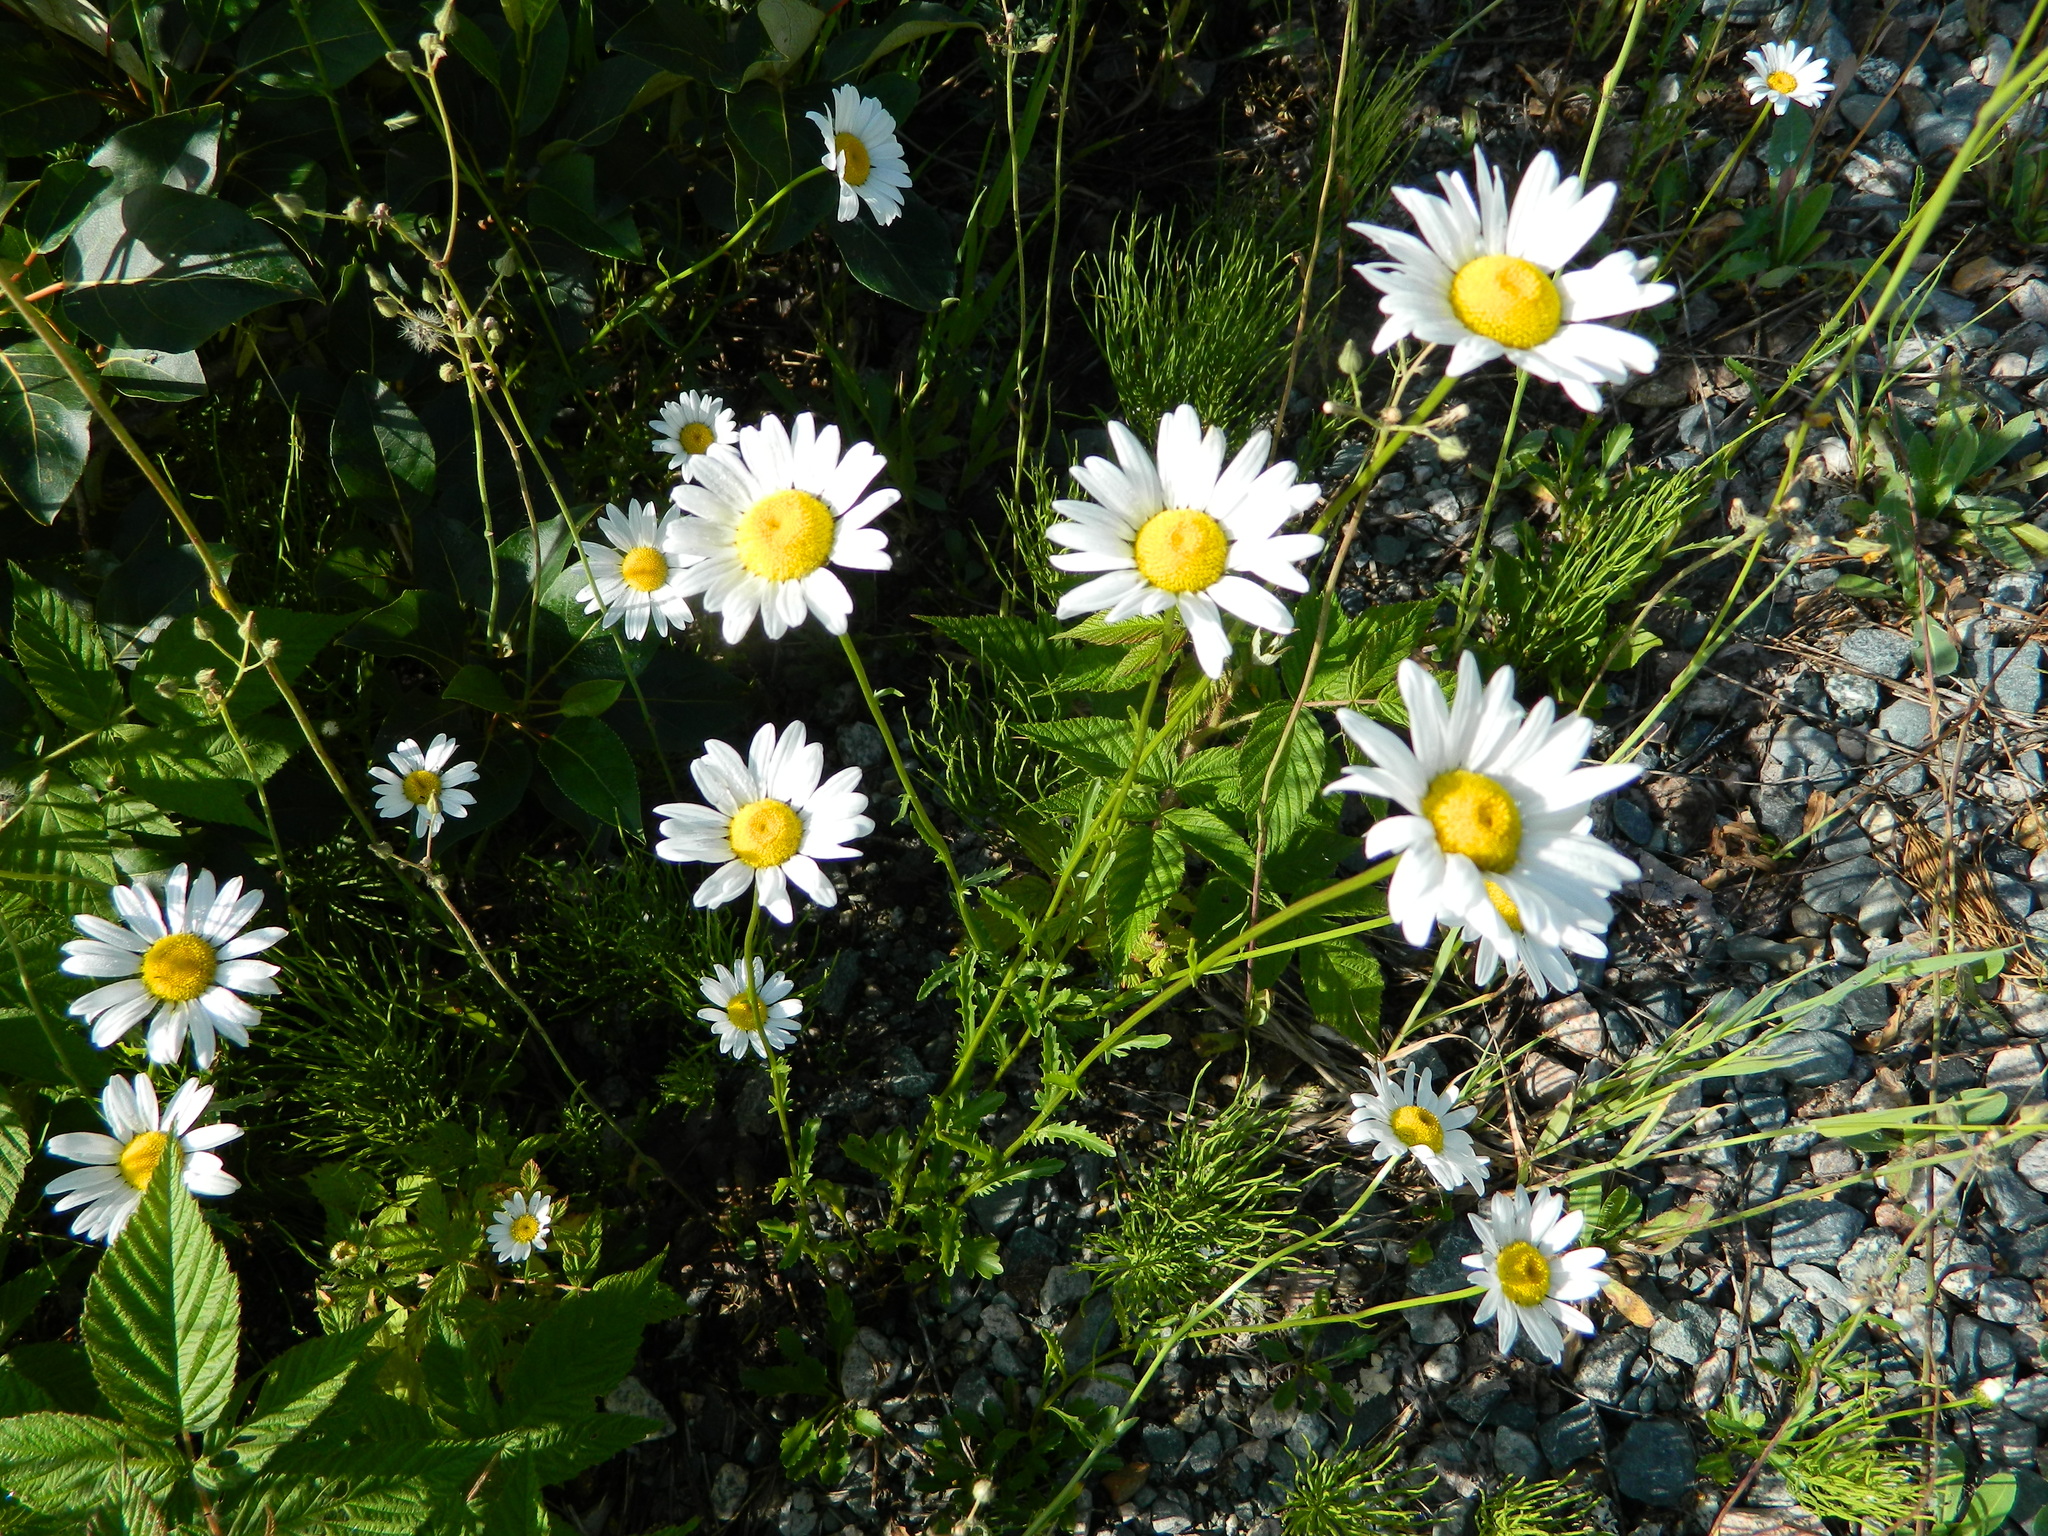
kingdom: Plantae
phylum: Tracheophyta
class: Magnoliopsida
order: Asterales
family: Asteraceae
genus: Leucanthemum
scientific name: Leucanthemum vulgare
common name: Oxeye daisy
